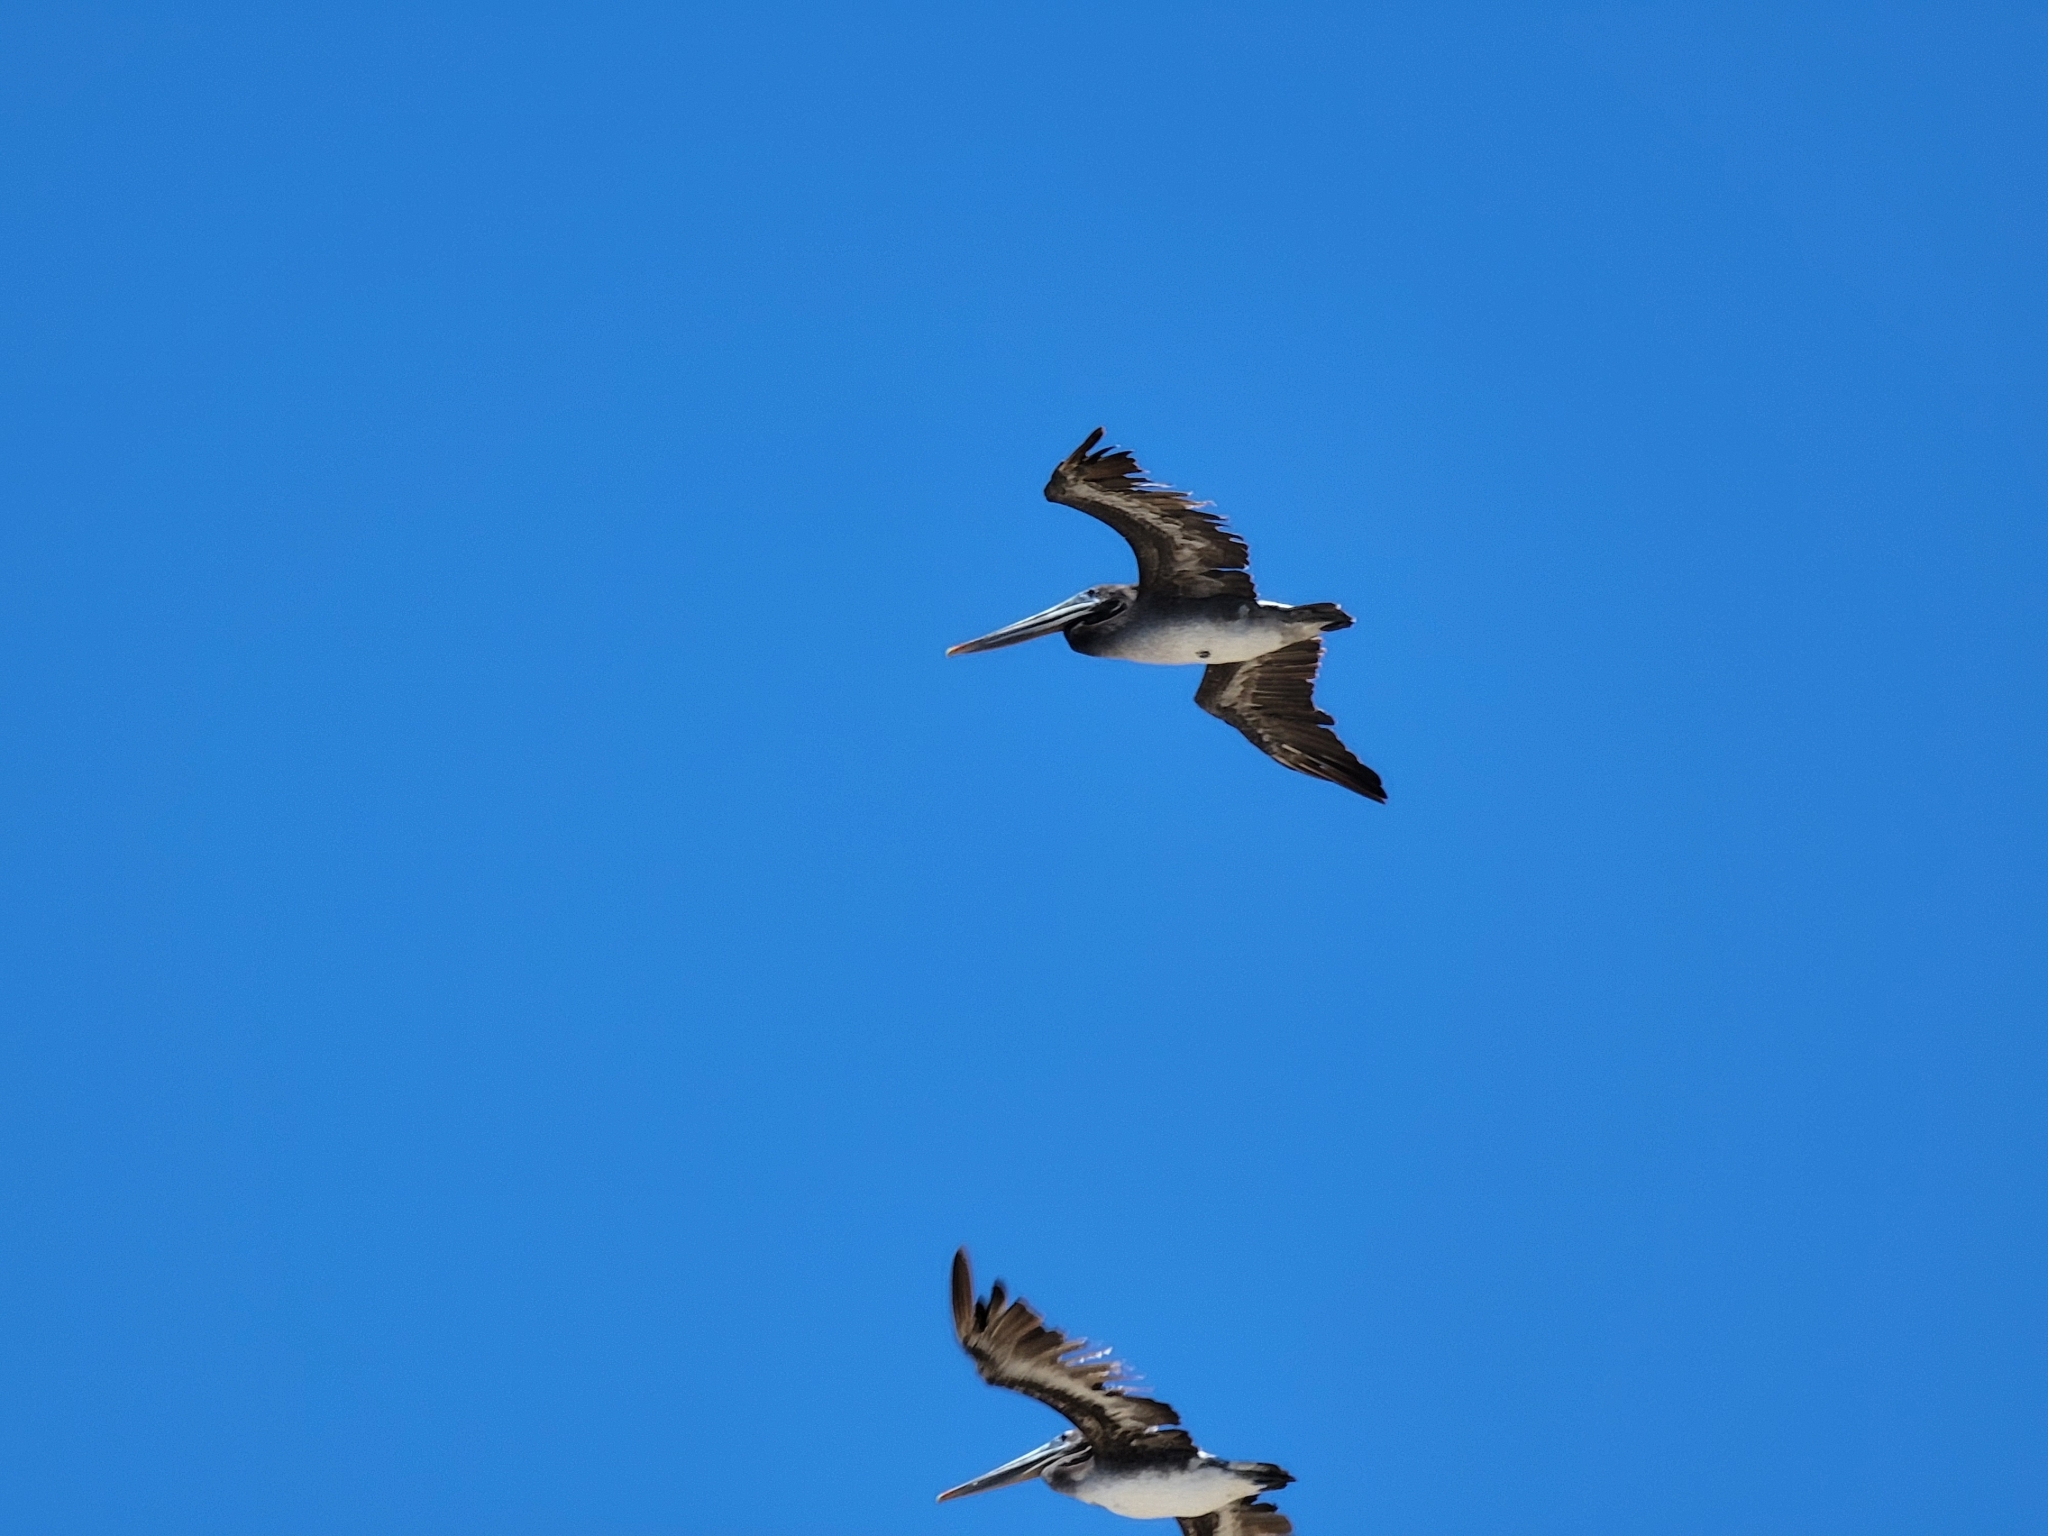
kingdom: Animalia
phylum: Chordata
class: Aves
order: Pelecaniformes
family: Pelecanidae
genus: Pelecanus
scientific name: Pelecanus occidentalis
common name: Brown pelican
